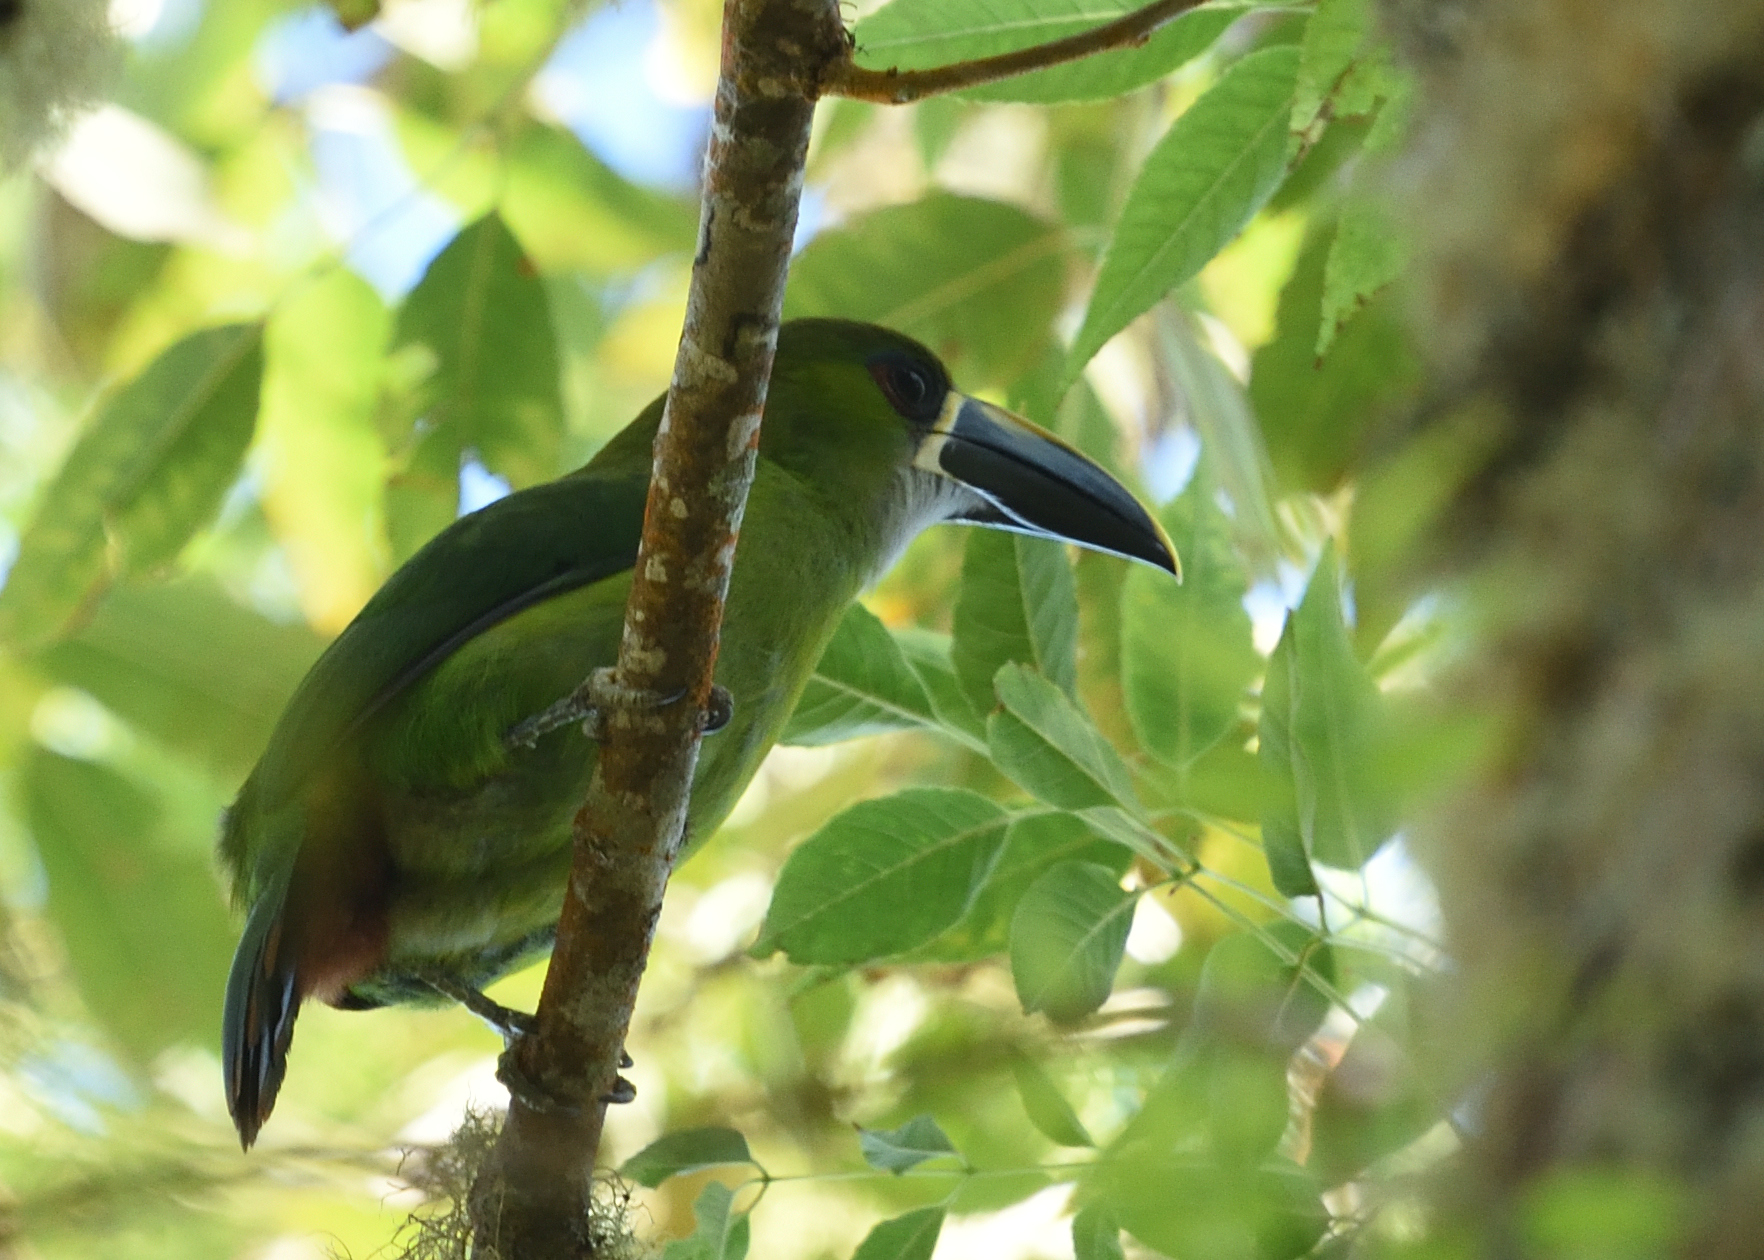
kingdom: Animalia
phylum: Chordata
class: Aves
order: Piciformes
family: Ramphastidae
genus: Aulacorhynchus
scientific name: Aulacorhynchus albivitta
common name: White-throated toucanet
